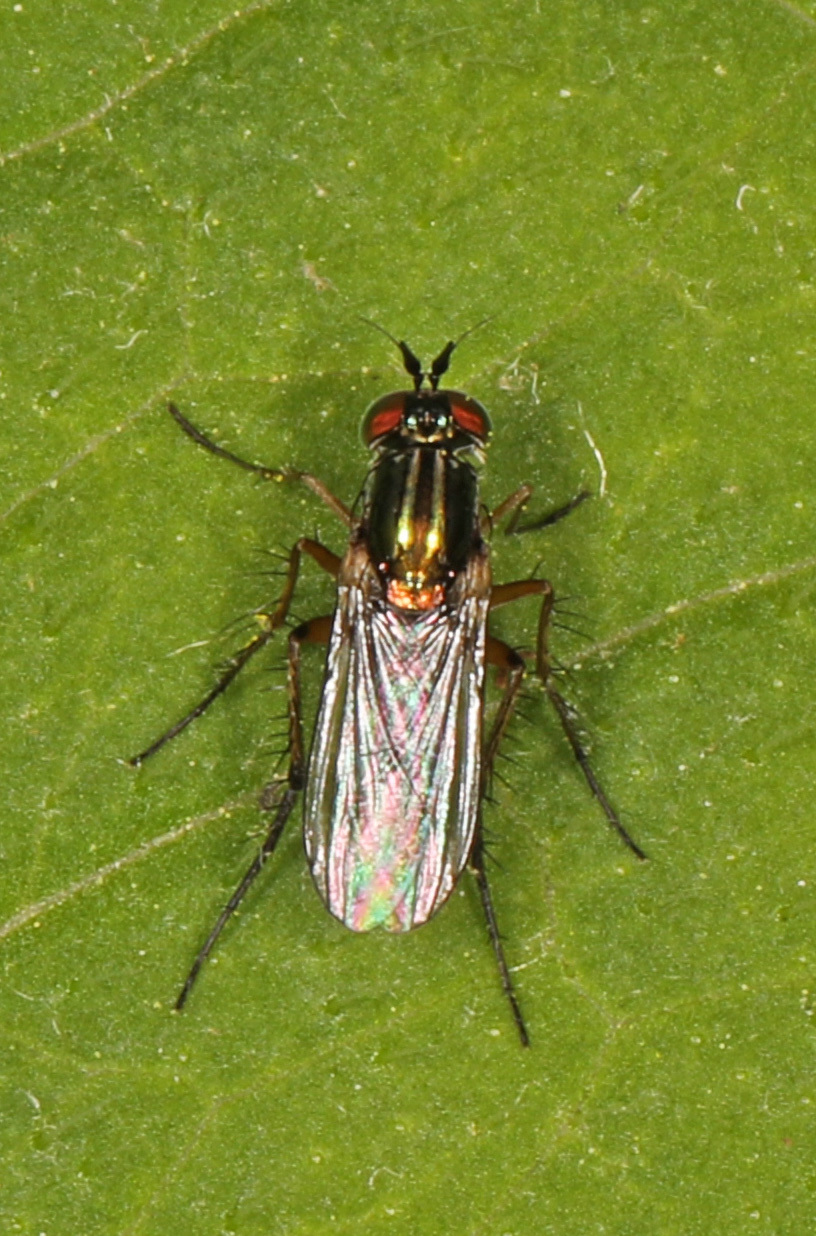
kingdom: Animalia
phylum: Arthropoda
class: Insecta
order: Diptera
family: Dolichopodidae
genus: Dolichopus
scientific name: Dolichopus comatus
